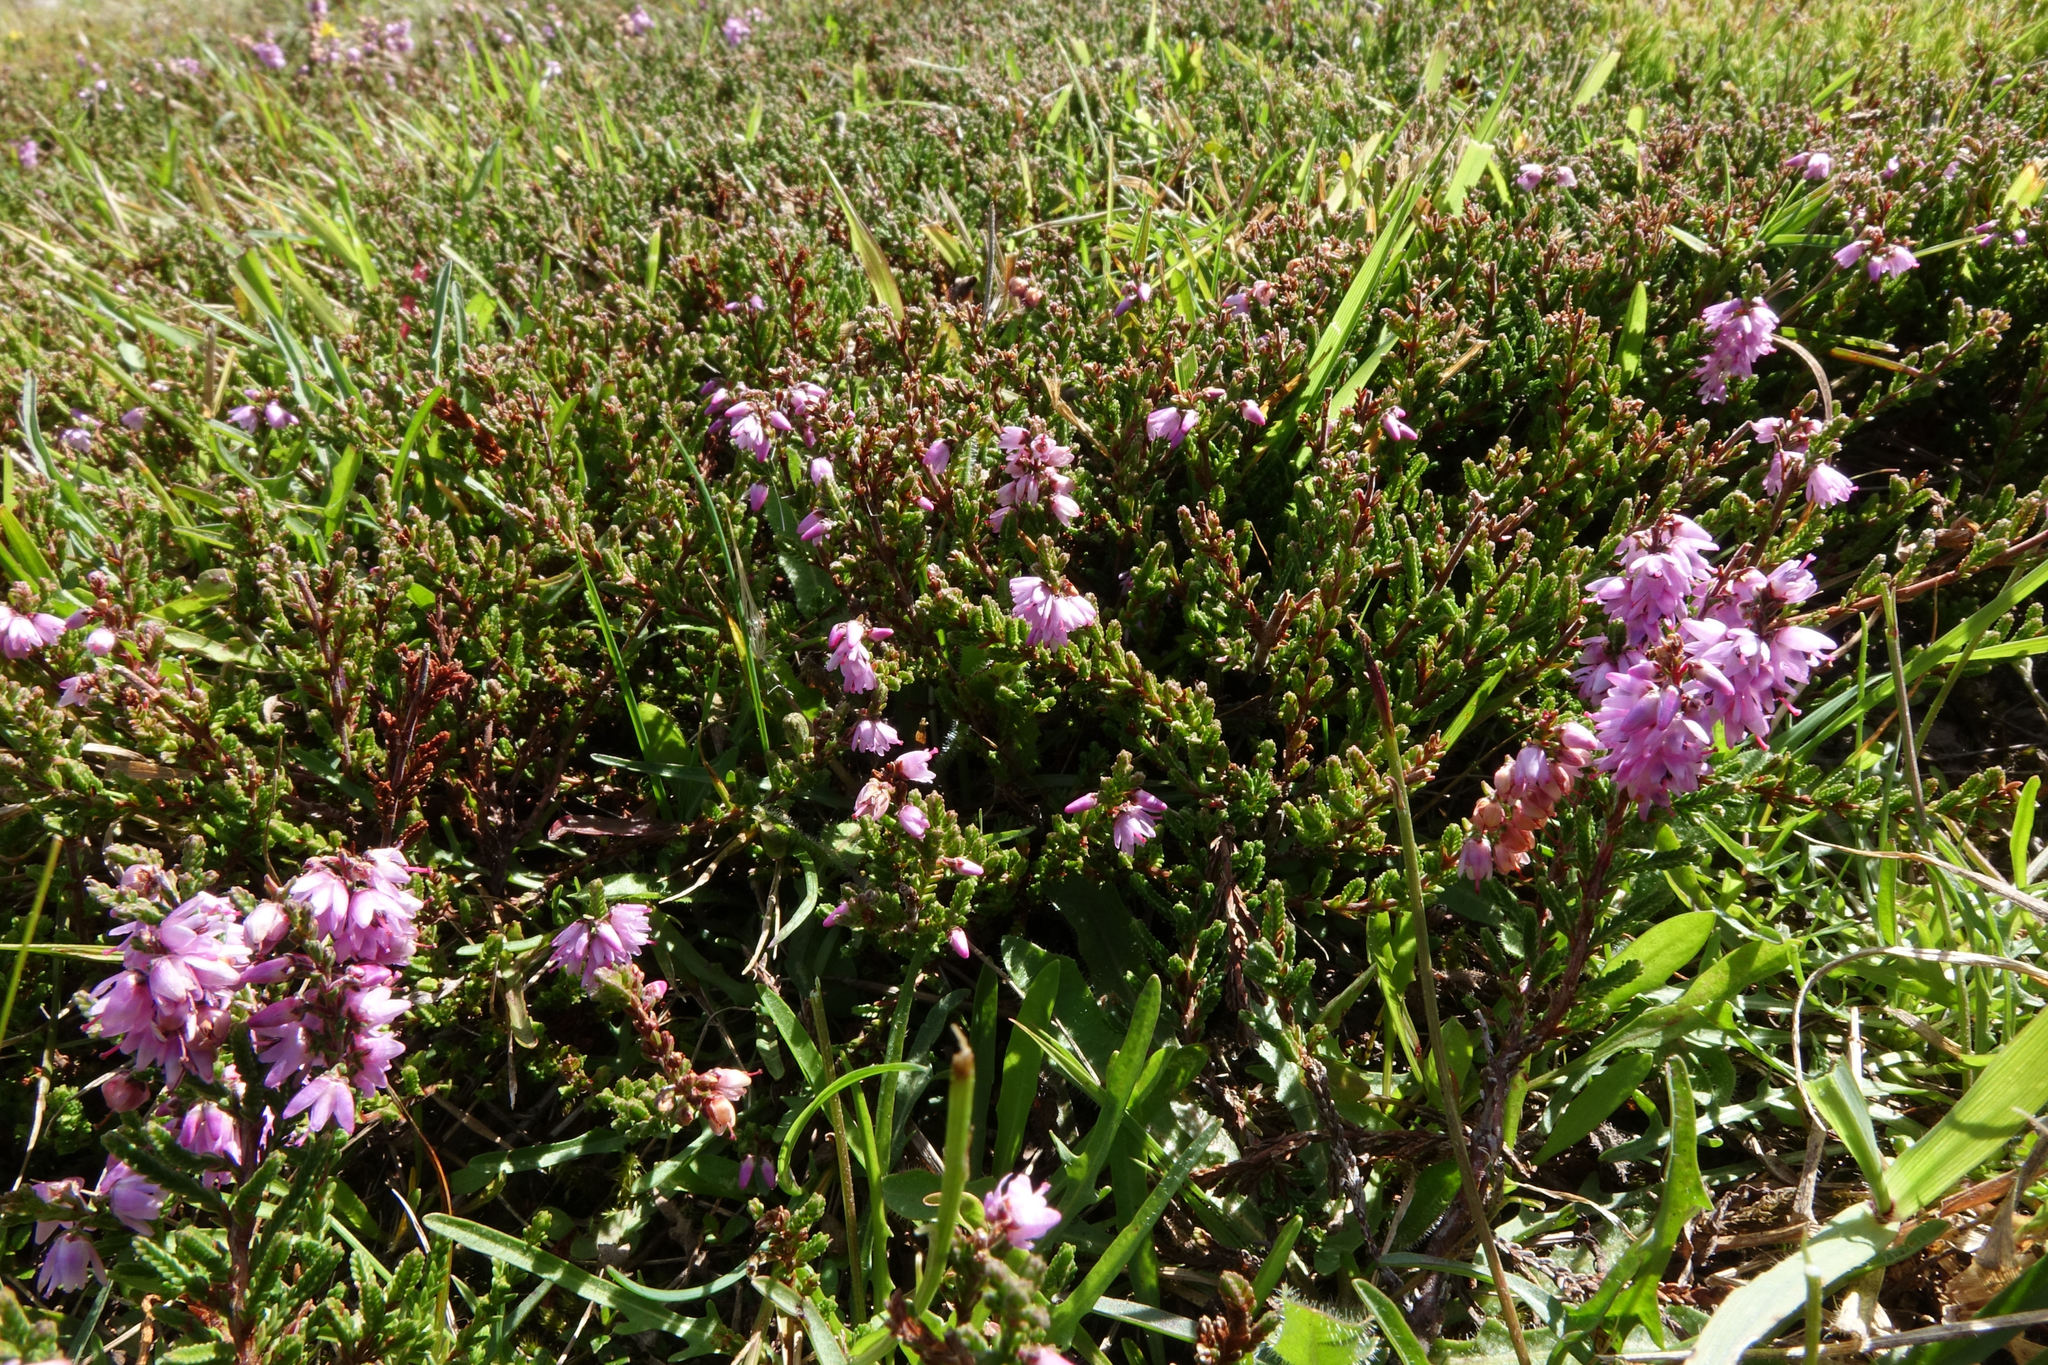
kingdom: Plantae
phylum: Tracheophyta
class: Magnoliopsida
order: Ericales
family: Ericaceae
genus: Calluna
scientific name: Calluna vulgaris
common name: Heather
